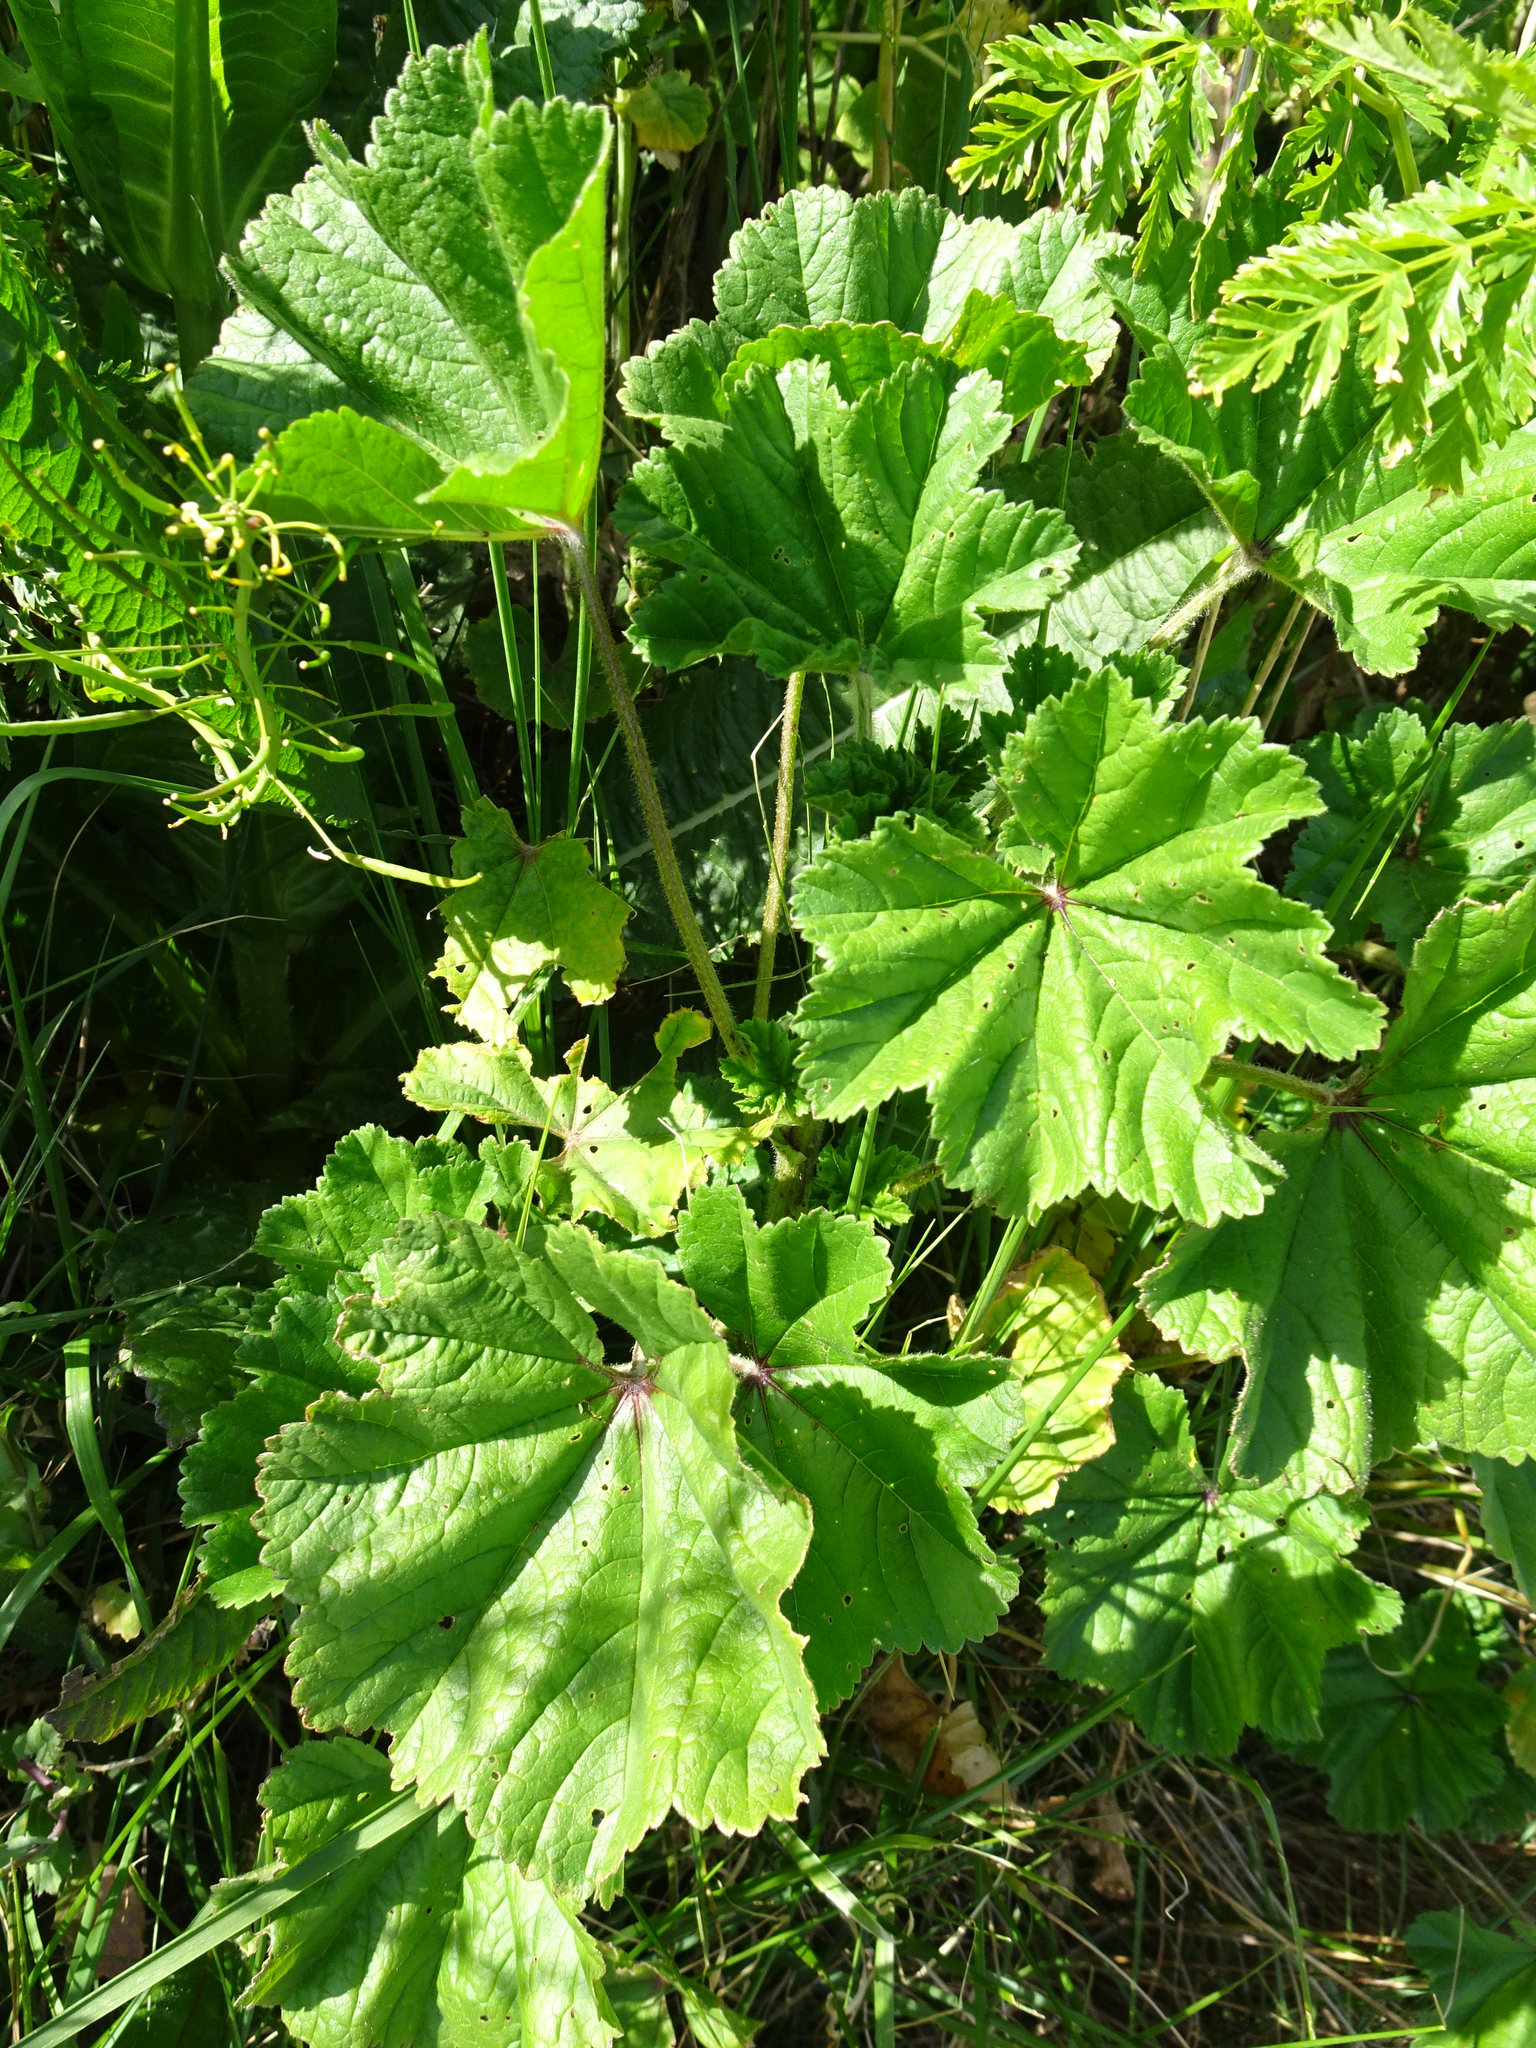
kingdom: Plantae
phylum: Tracheophyta
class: Magnoliopsida
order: Malvales
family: Malvaceae
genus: Malva
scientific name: Malva sylvestris
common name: Common mallow
